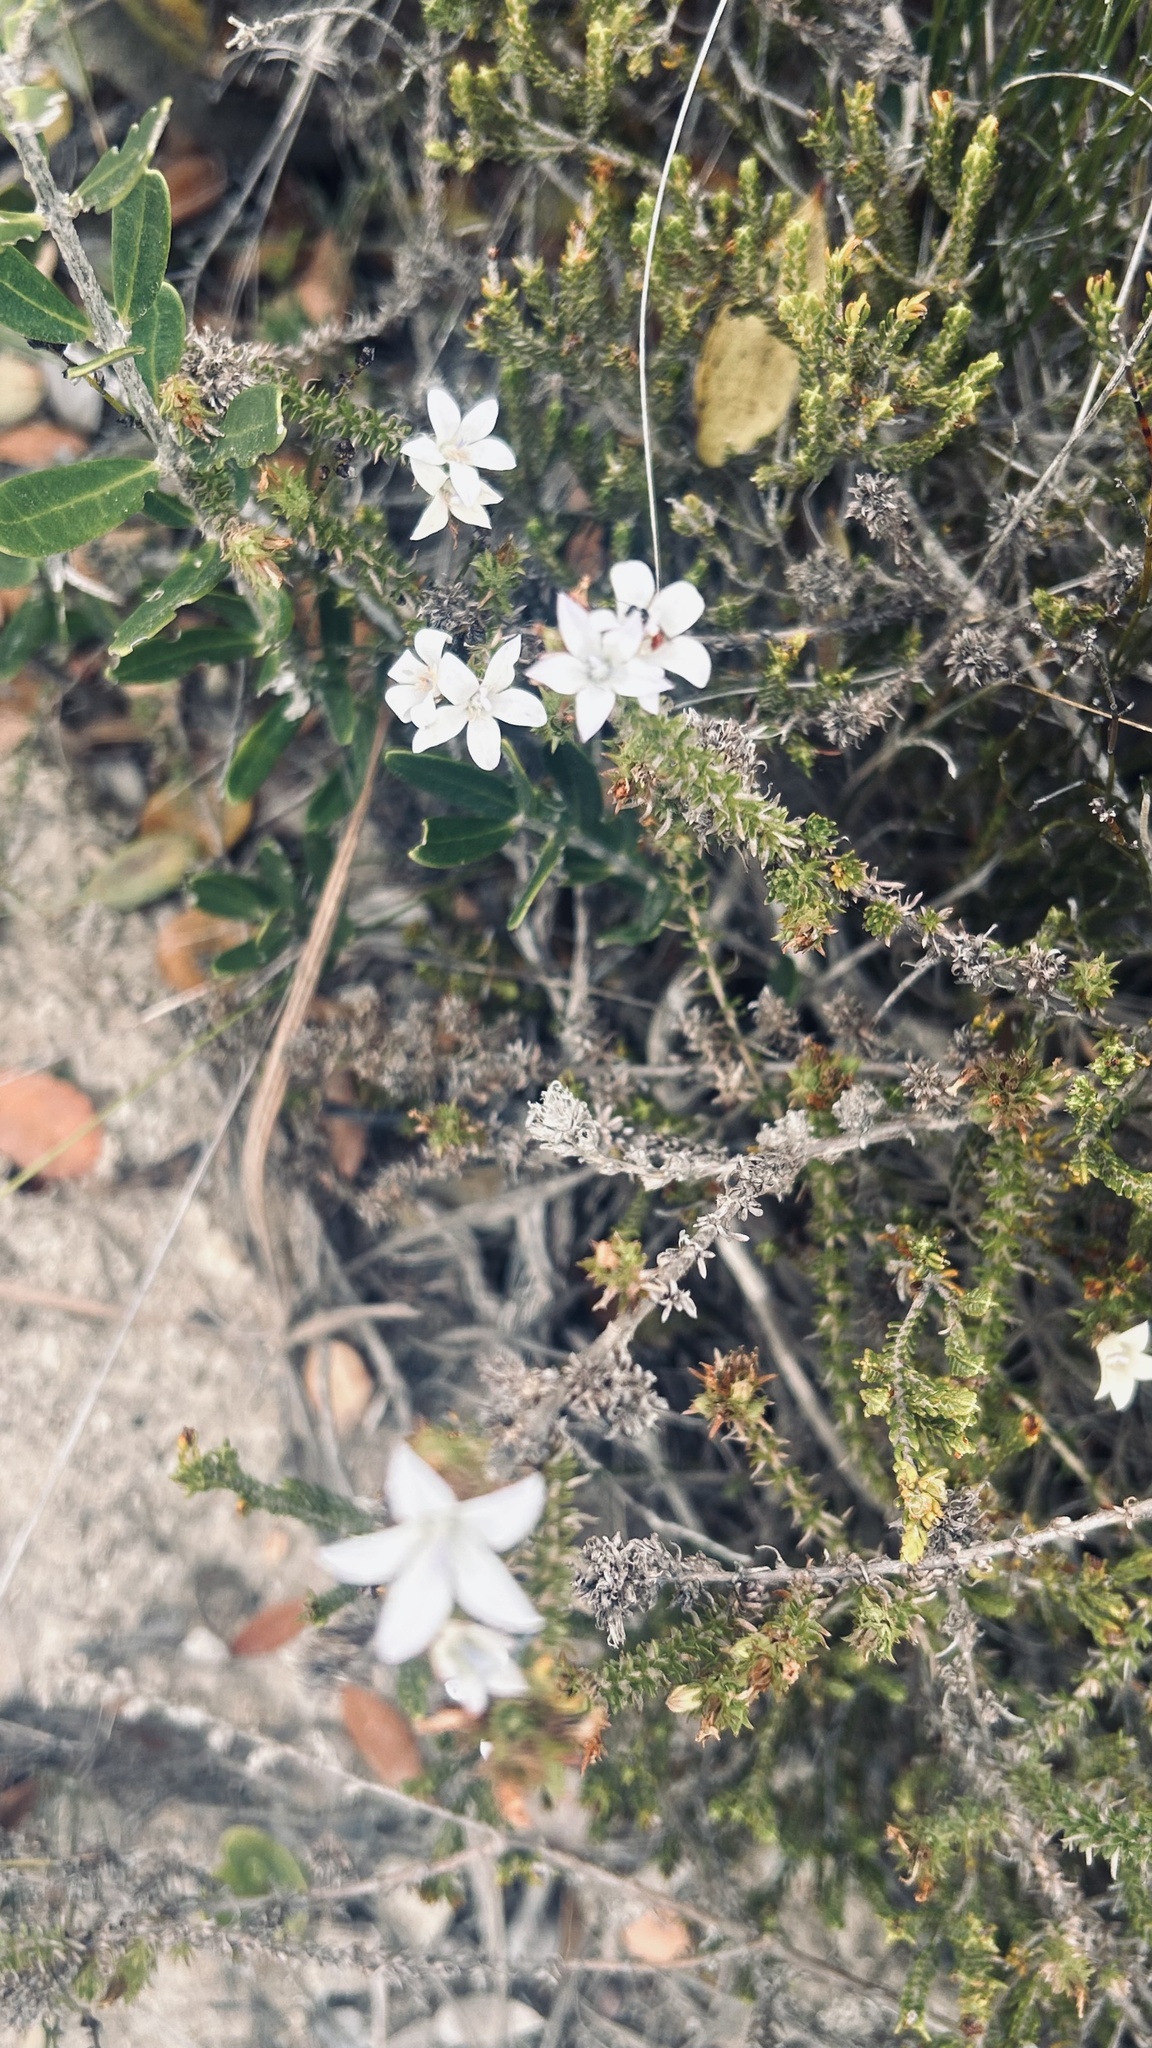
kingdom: Plantae
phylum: Tracheophyta
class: Magnoliopsida
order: Asterales
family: Campanulaceae
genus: Wahlenbergia
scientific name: Wahlenbergia calcarea
